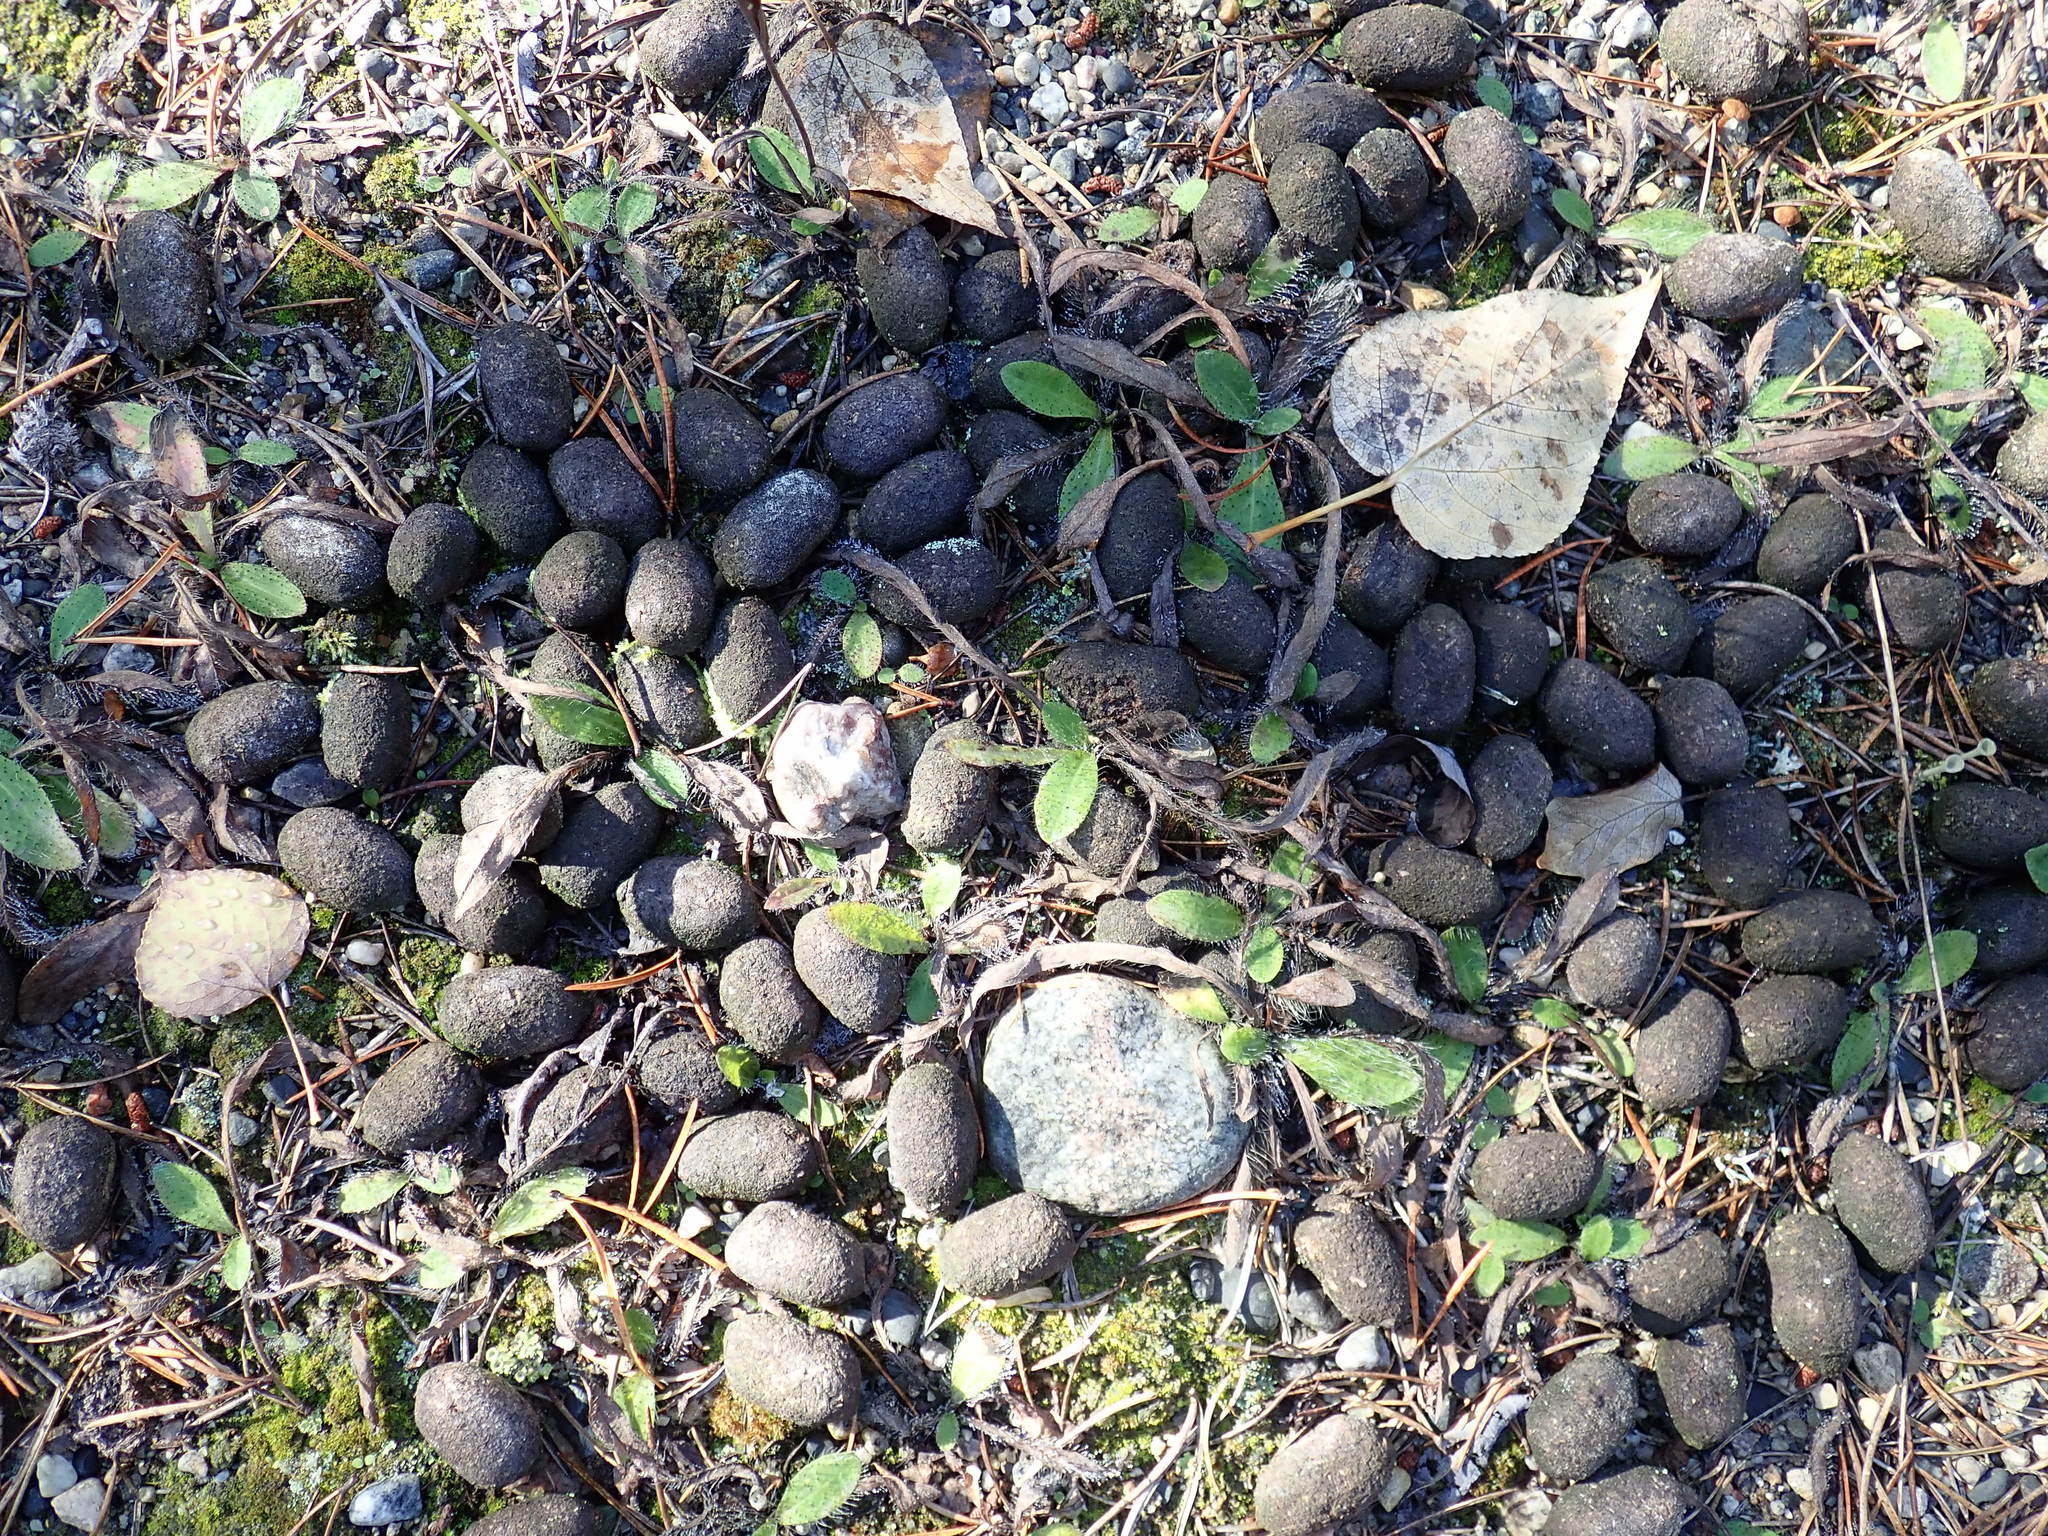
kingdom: Animalia
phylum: Chordata
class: Mammalia
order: Artiodactyla
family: Cervidae
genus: Alces
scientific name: Alces alces
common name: Moose
